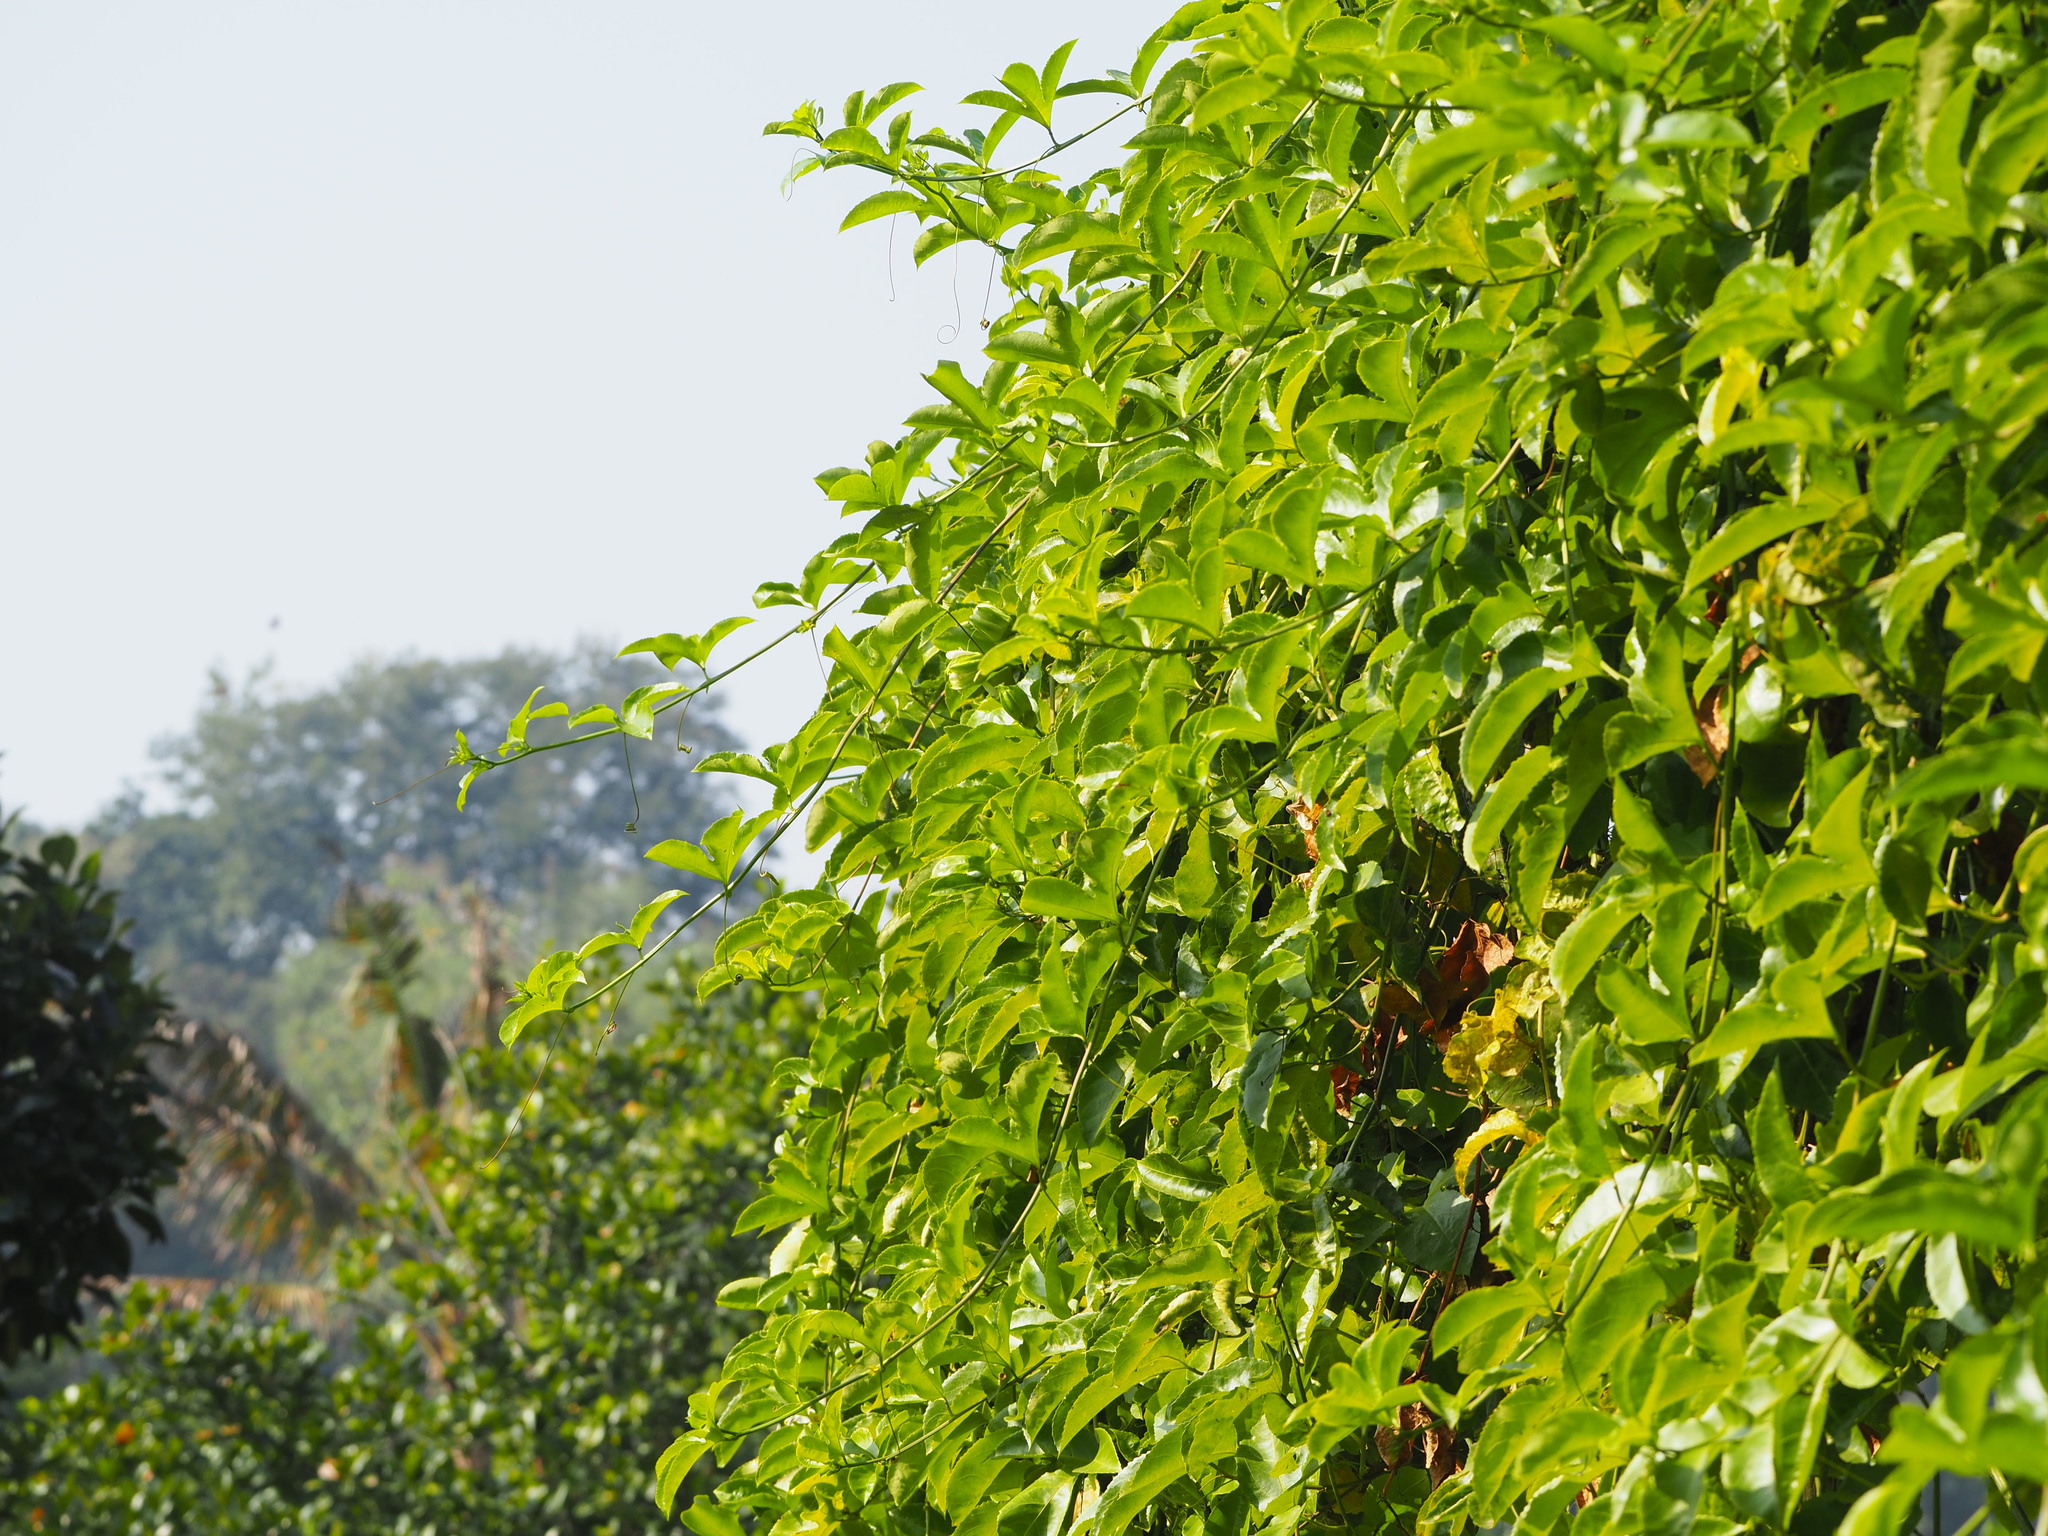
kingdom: Plantae
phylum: Tracheophyta
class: Magnoliopsida
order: Malpighiales
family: Passifloraceae
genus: Passiflora
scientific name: Passiflora edulis
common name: Purple granadilla
